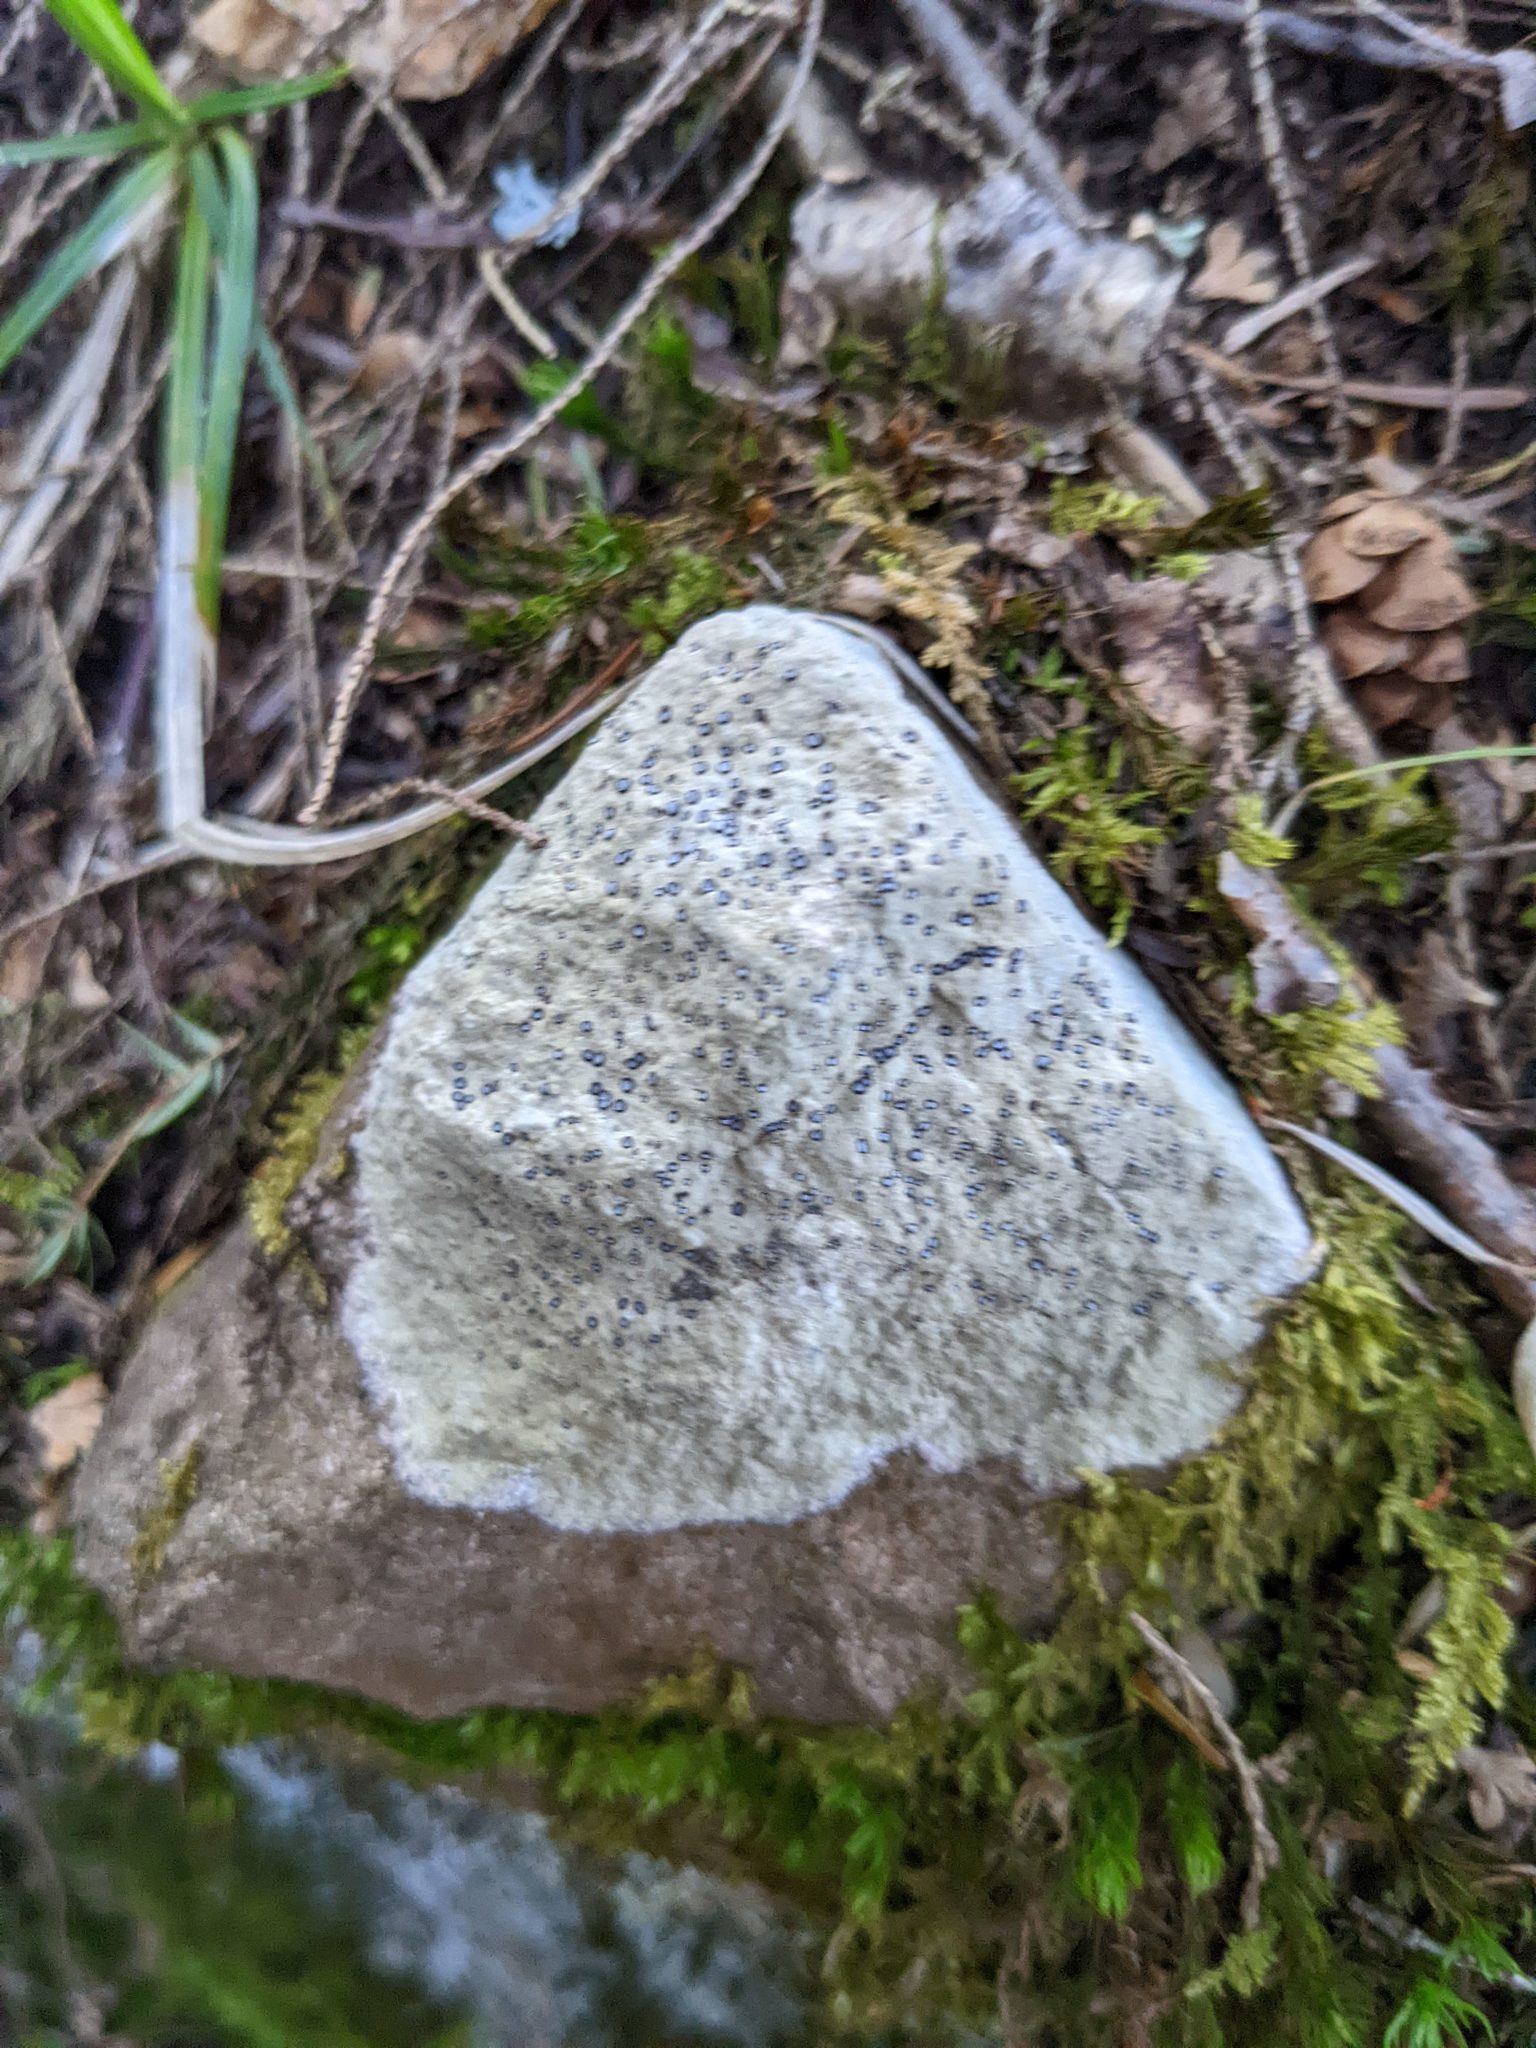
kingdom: Fungi
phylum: Ascomycota
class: Lecanoromycetes
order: Lecideales
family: Lecideaceae
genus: Porpidia
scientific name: Porpidia albocaerulescens
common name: Smokey-eyed boulder lichen
